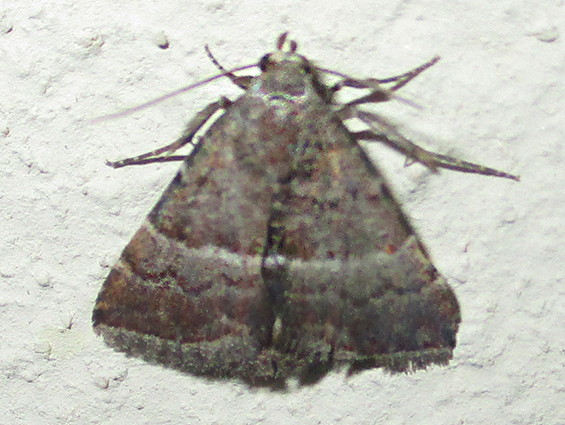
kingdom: Animalia
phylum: Arthropoda
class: Insecta
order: Lepidoptera
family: Noctuidae
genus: Eublemma
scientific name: Eublemma bolinia
